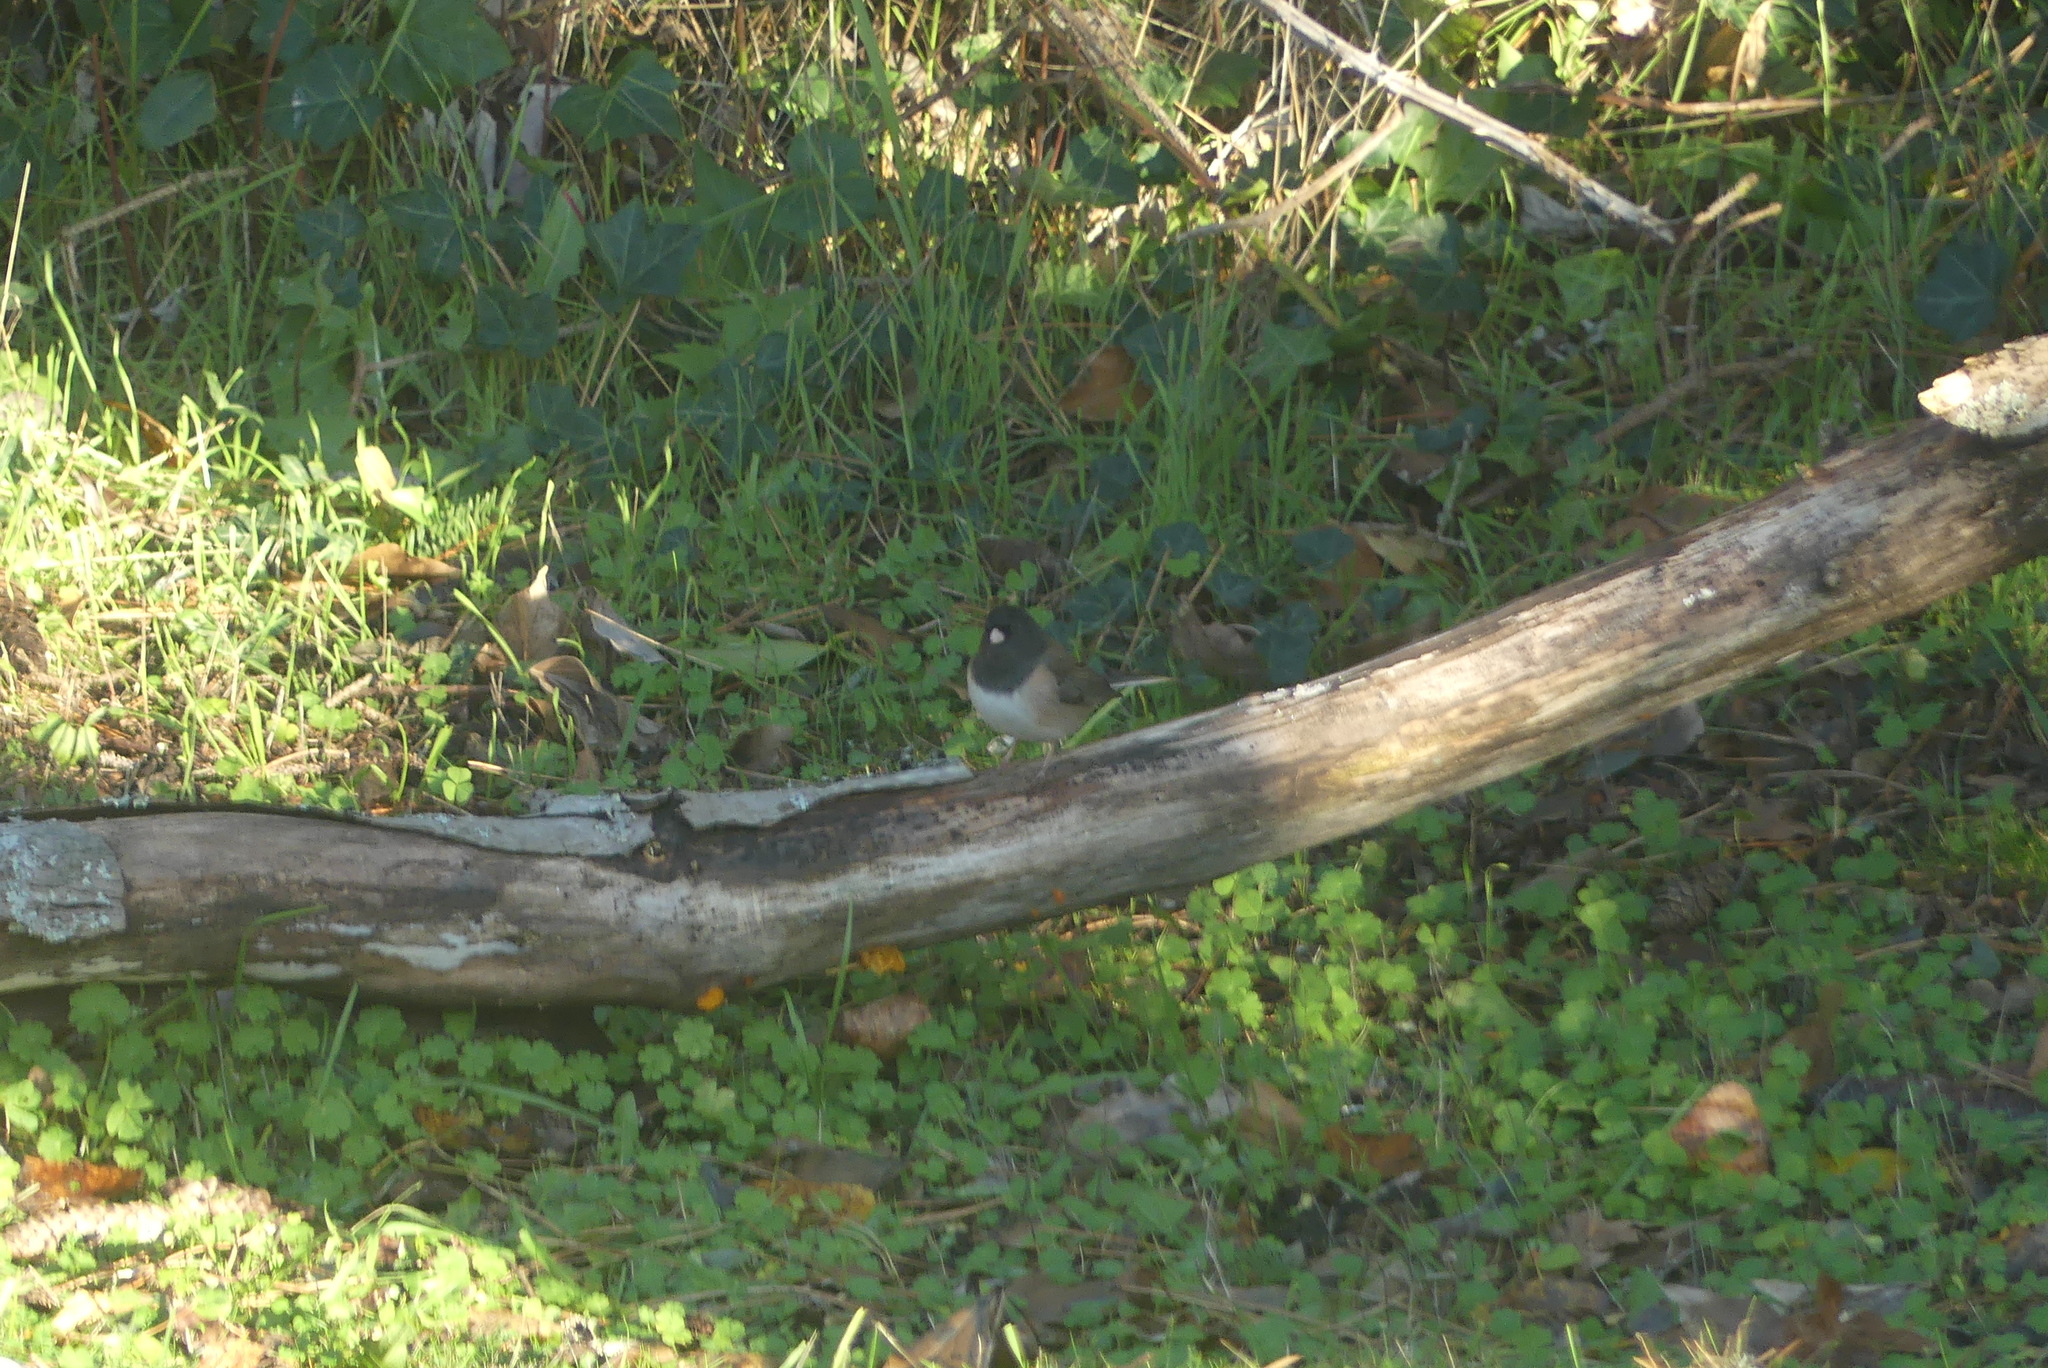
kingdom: Animalia
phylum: Chordata
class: Aves
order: Passeriformes
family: Passerellidae
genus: Junco
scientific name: Junco hyemalis
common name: Dark-eyed junco
